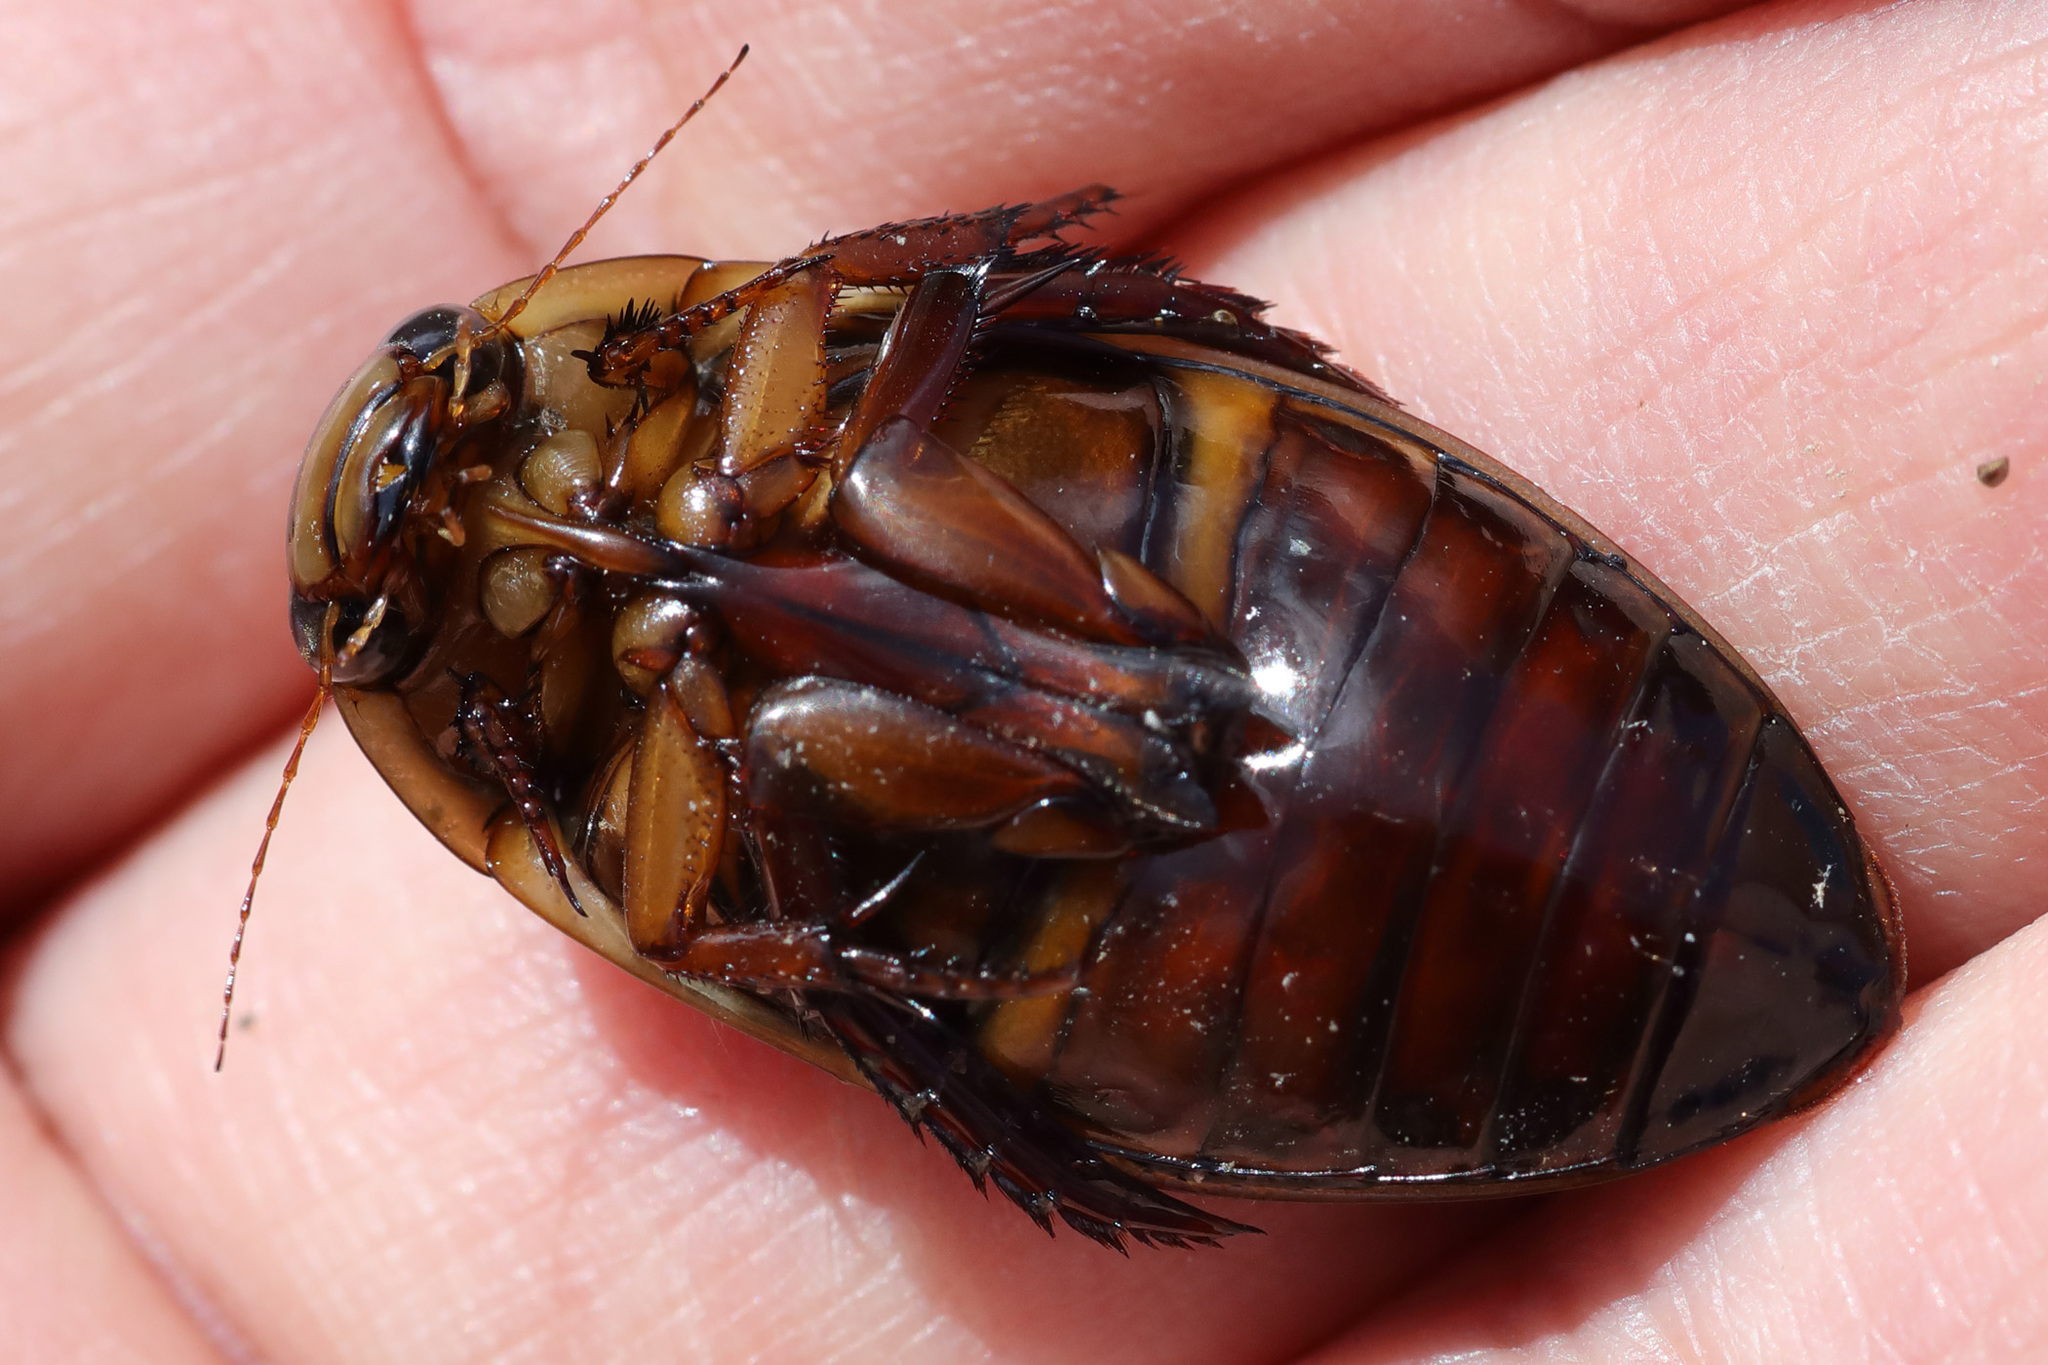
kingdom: Animalia
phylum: Arthropoda
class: Insecta
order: Coleoptera
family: Dytiscidae
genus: Dytiscus
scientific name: Dytiscus marginicollis
